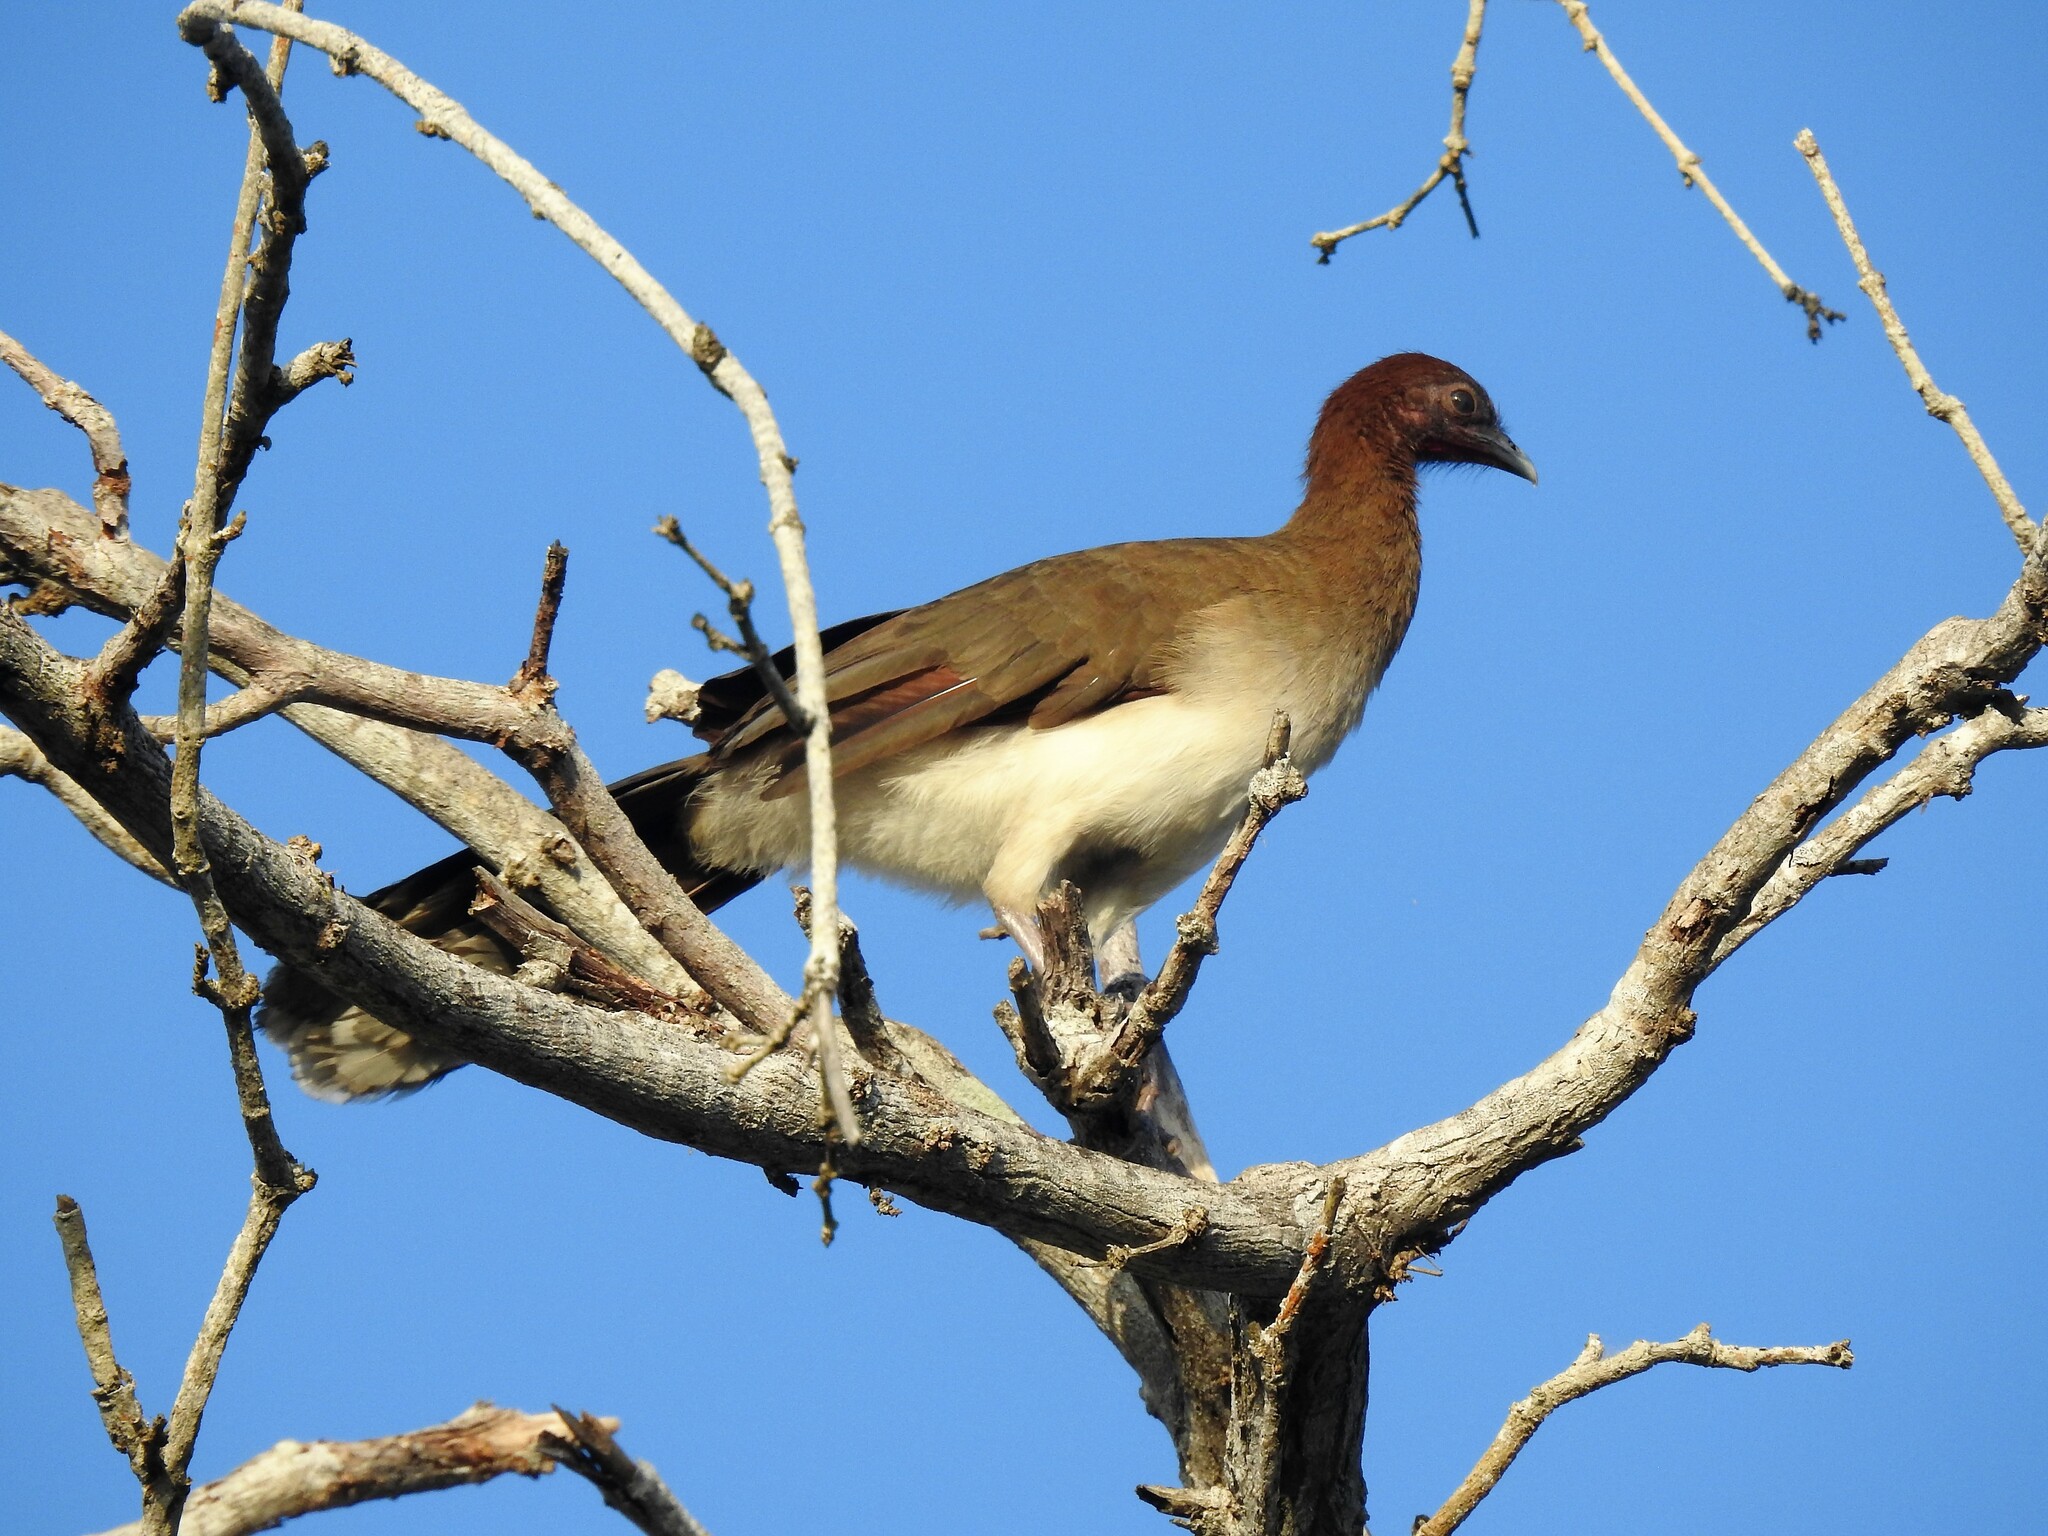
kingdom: Animalia
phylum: Chordata
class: Aves
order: Galliformes
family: Cracidae
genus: Ortalis
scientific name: Ortalis garrula
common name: Chestnut-winged chachalaca
